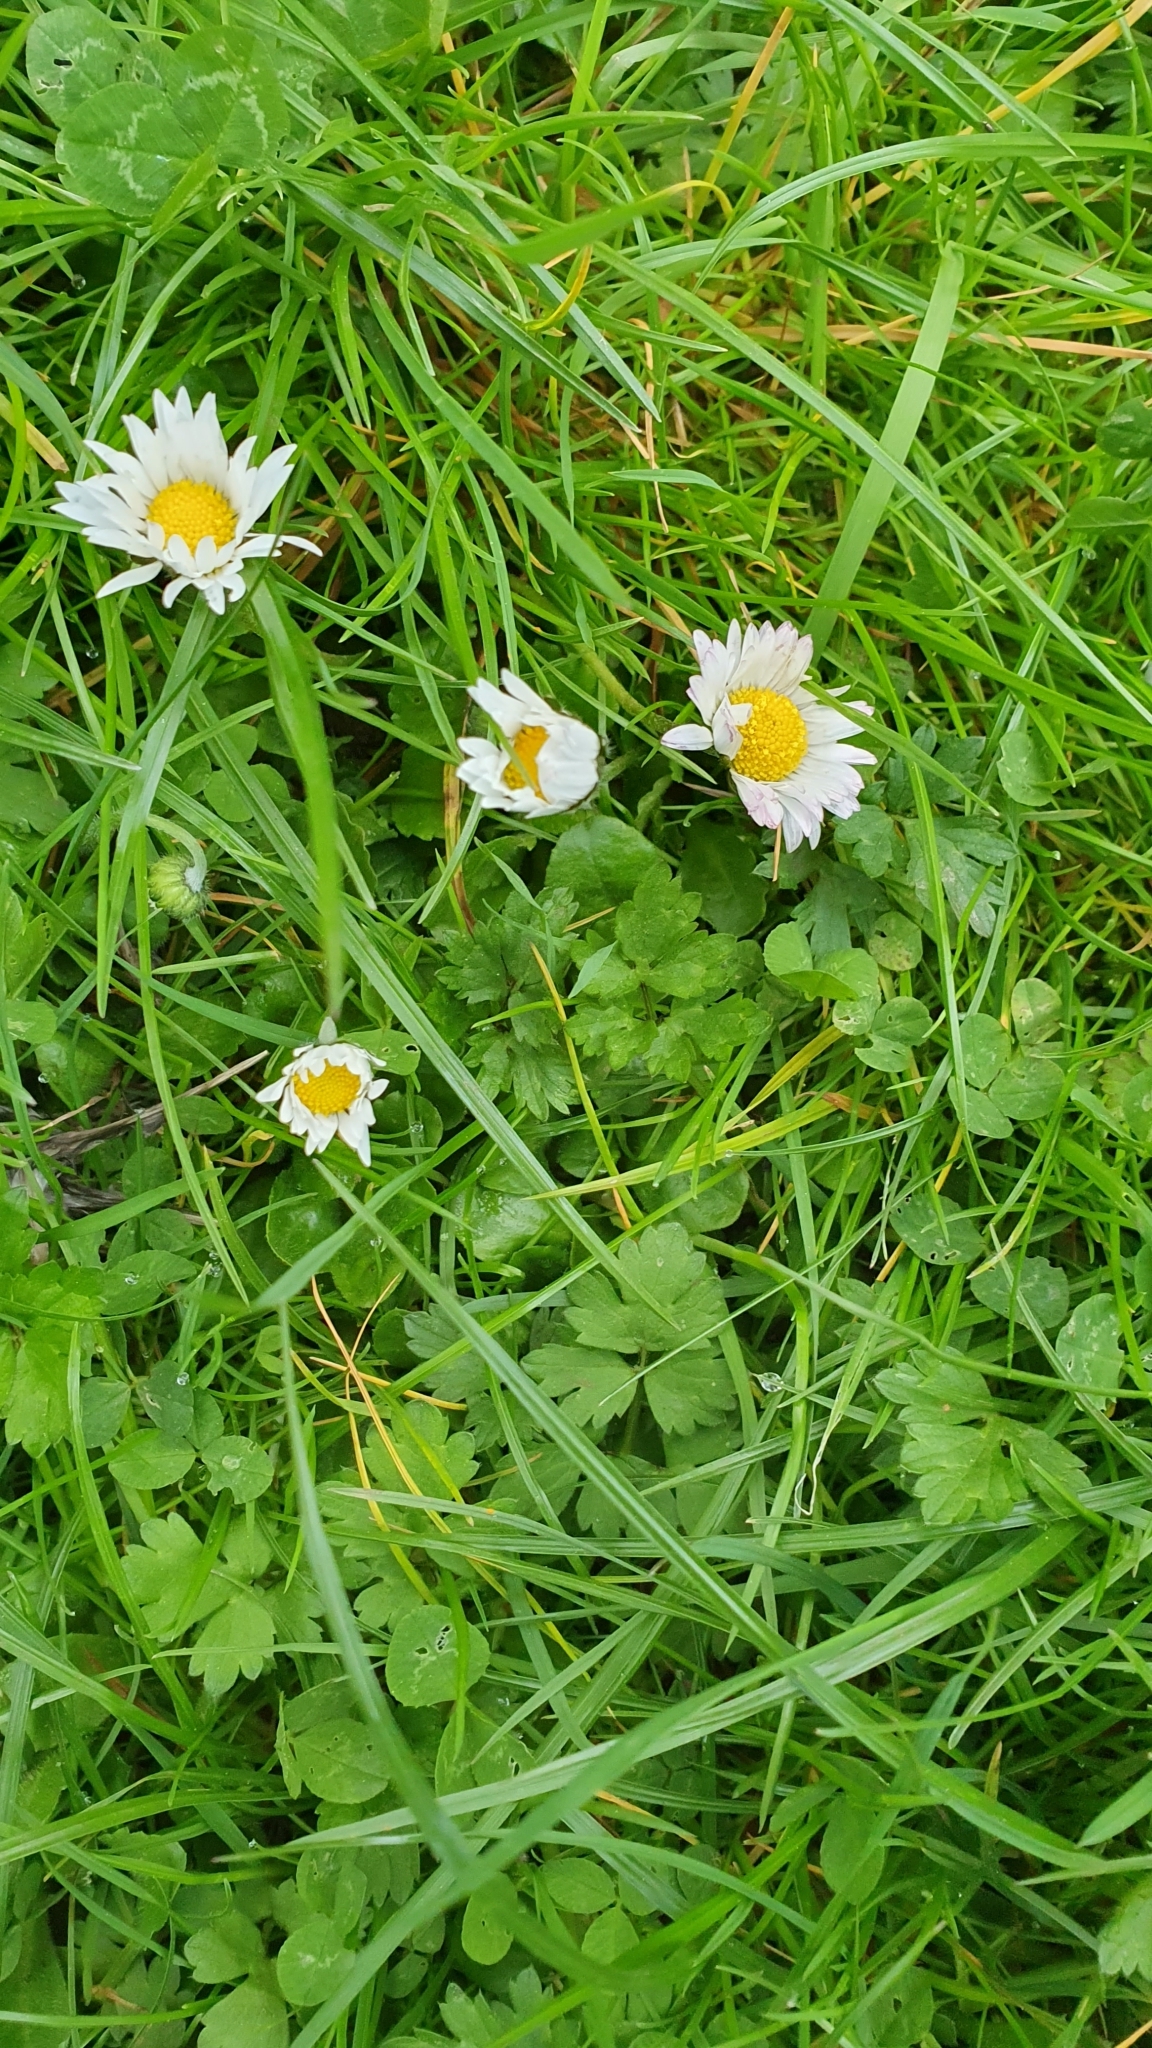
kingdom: Plantae
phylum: Tracheophyta
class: Magnoliopsida
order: Asterales
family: Asteraceae
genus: Bellis
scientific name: Bellis perennis
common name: Lawndaisy
